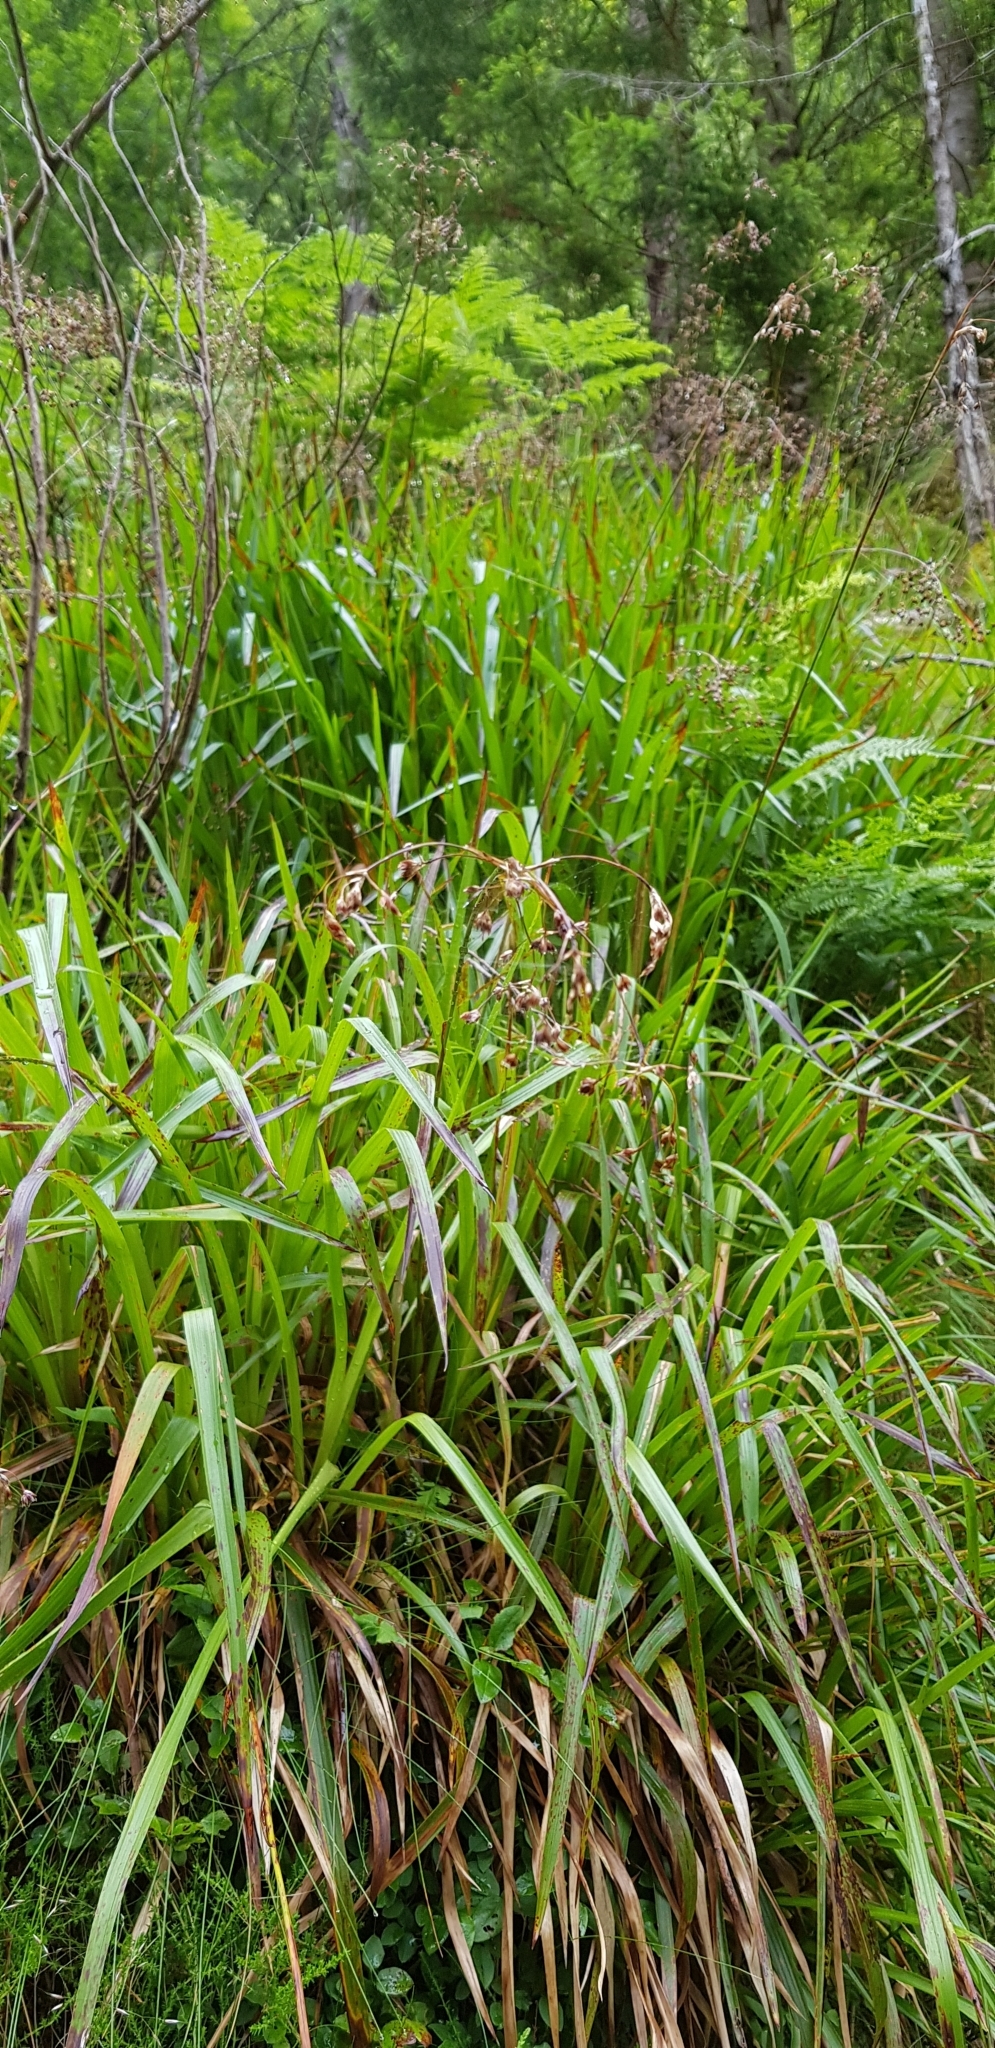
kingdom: Plantae
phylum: Tracheophyta
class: Liliopsida
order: Poales
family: Juncaceae
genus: Luzula
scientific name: Luzula sylvatica
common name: Great wood-rush
